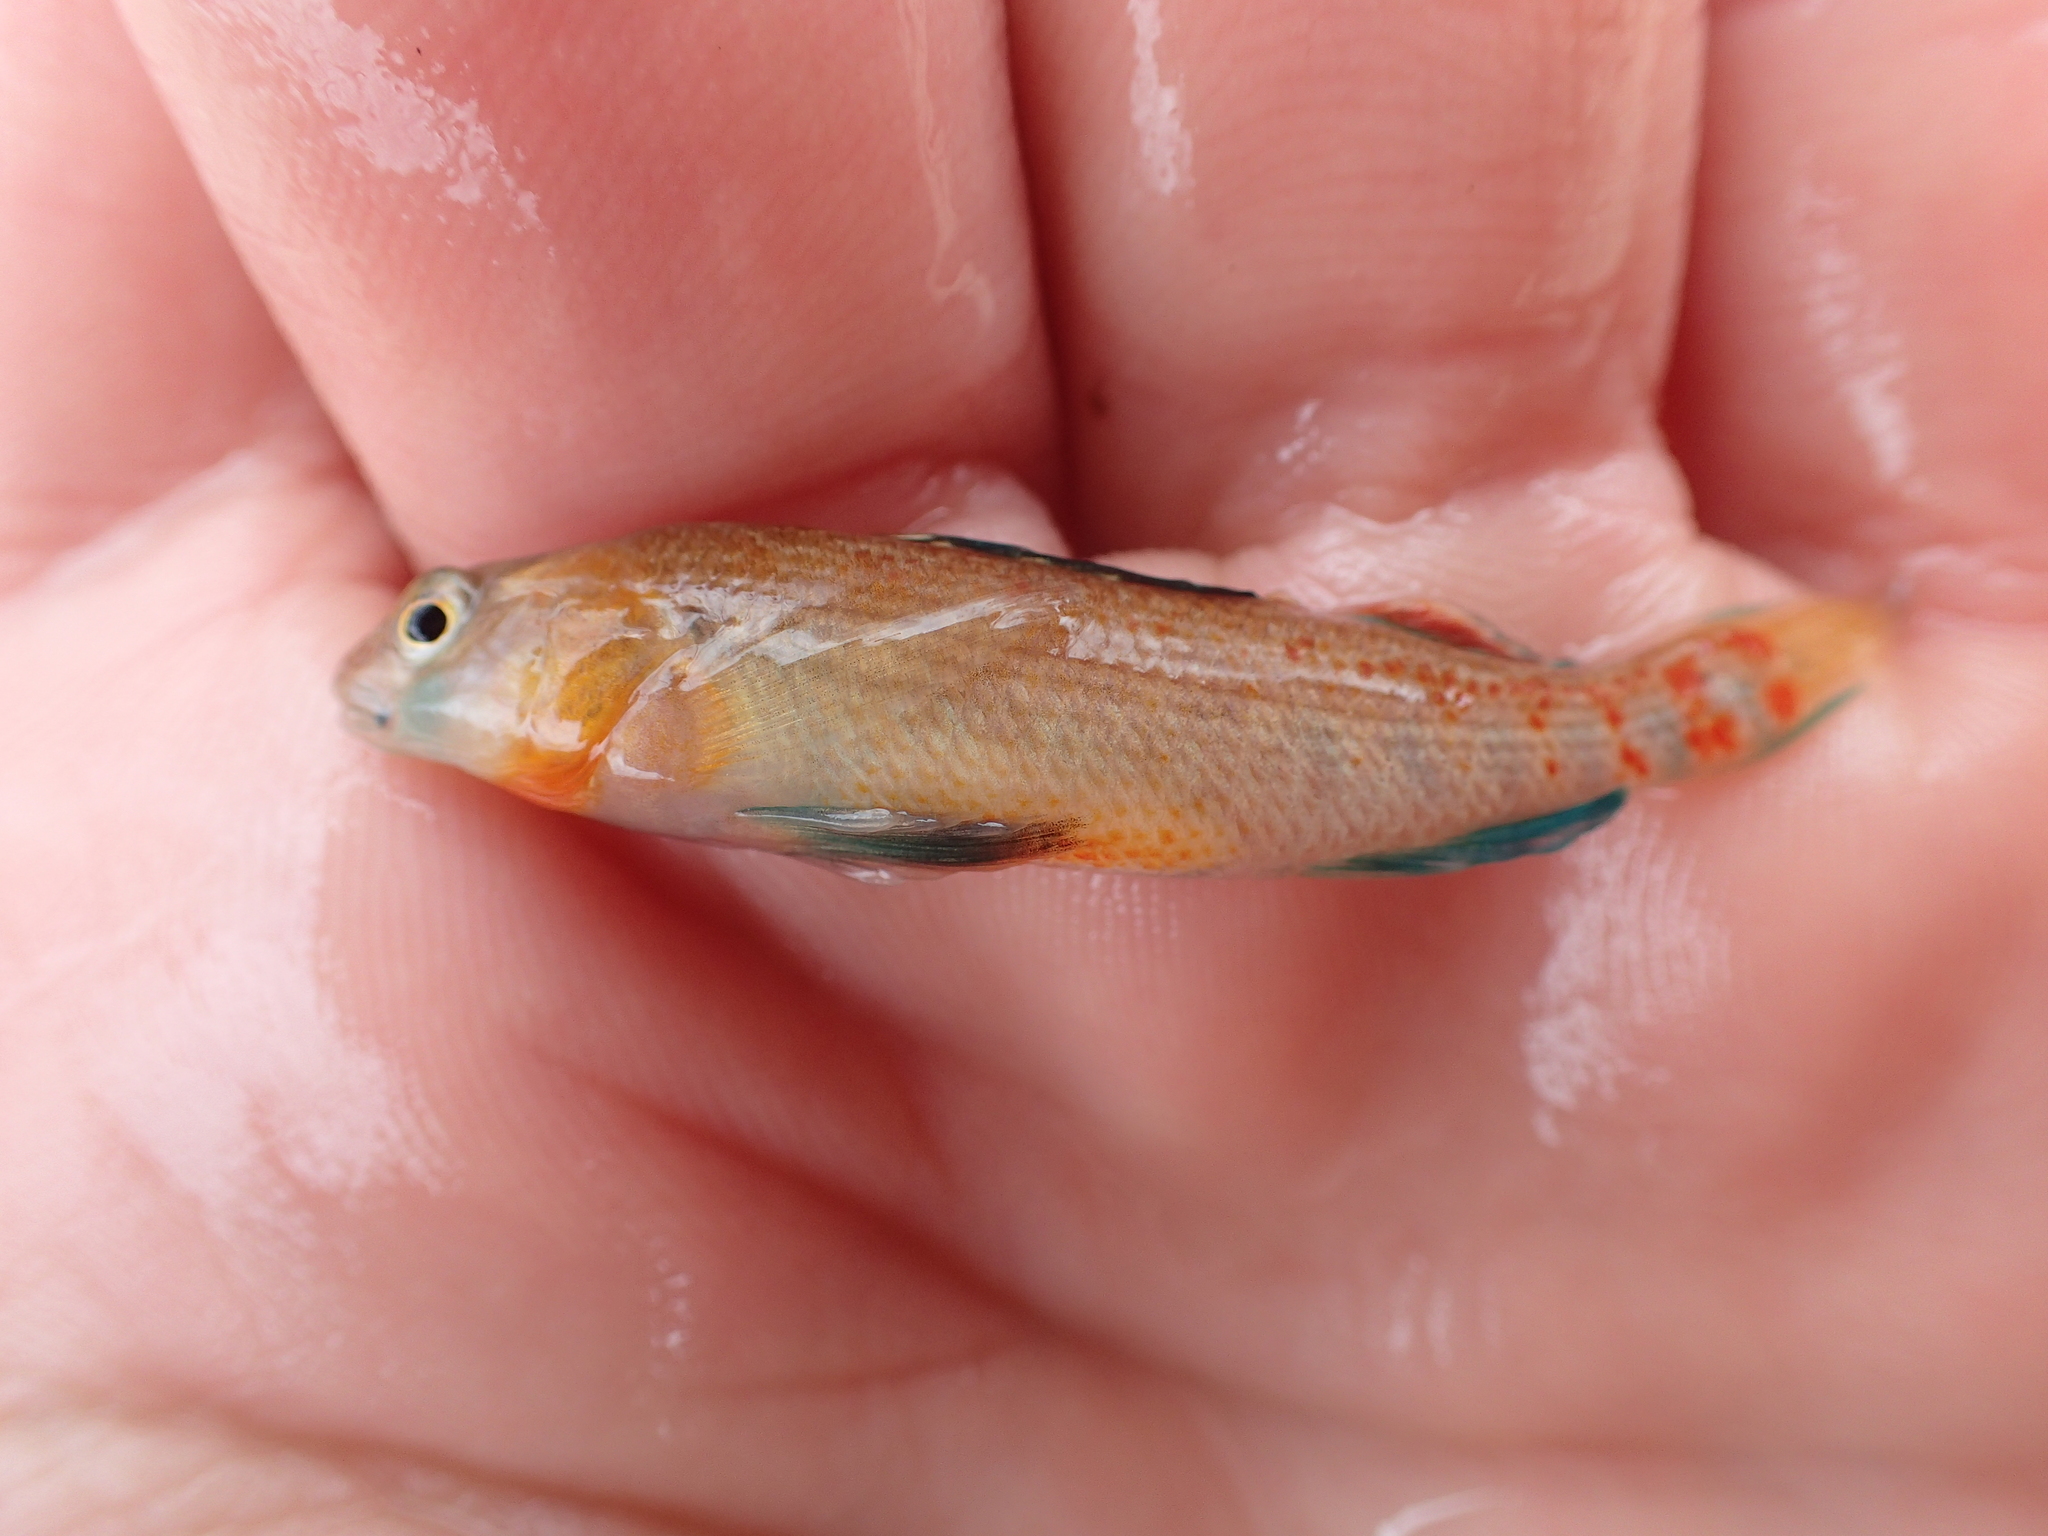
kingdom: Animalia
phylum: Chordata
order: Perciformes
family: Percidae
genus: Etheostoma
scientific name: Etheostoma spectabile
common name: Orangethroat darter
